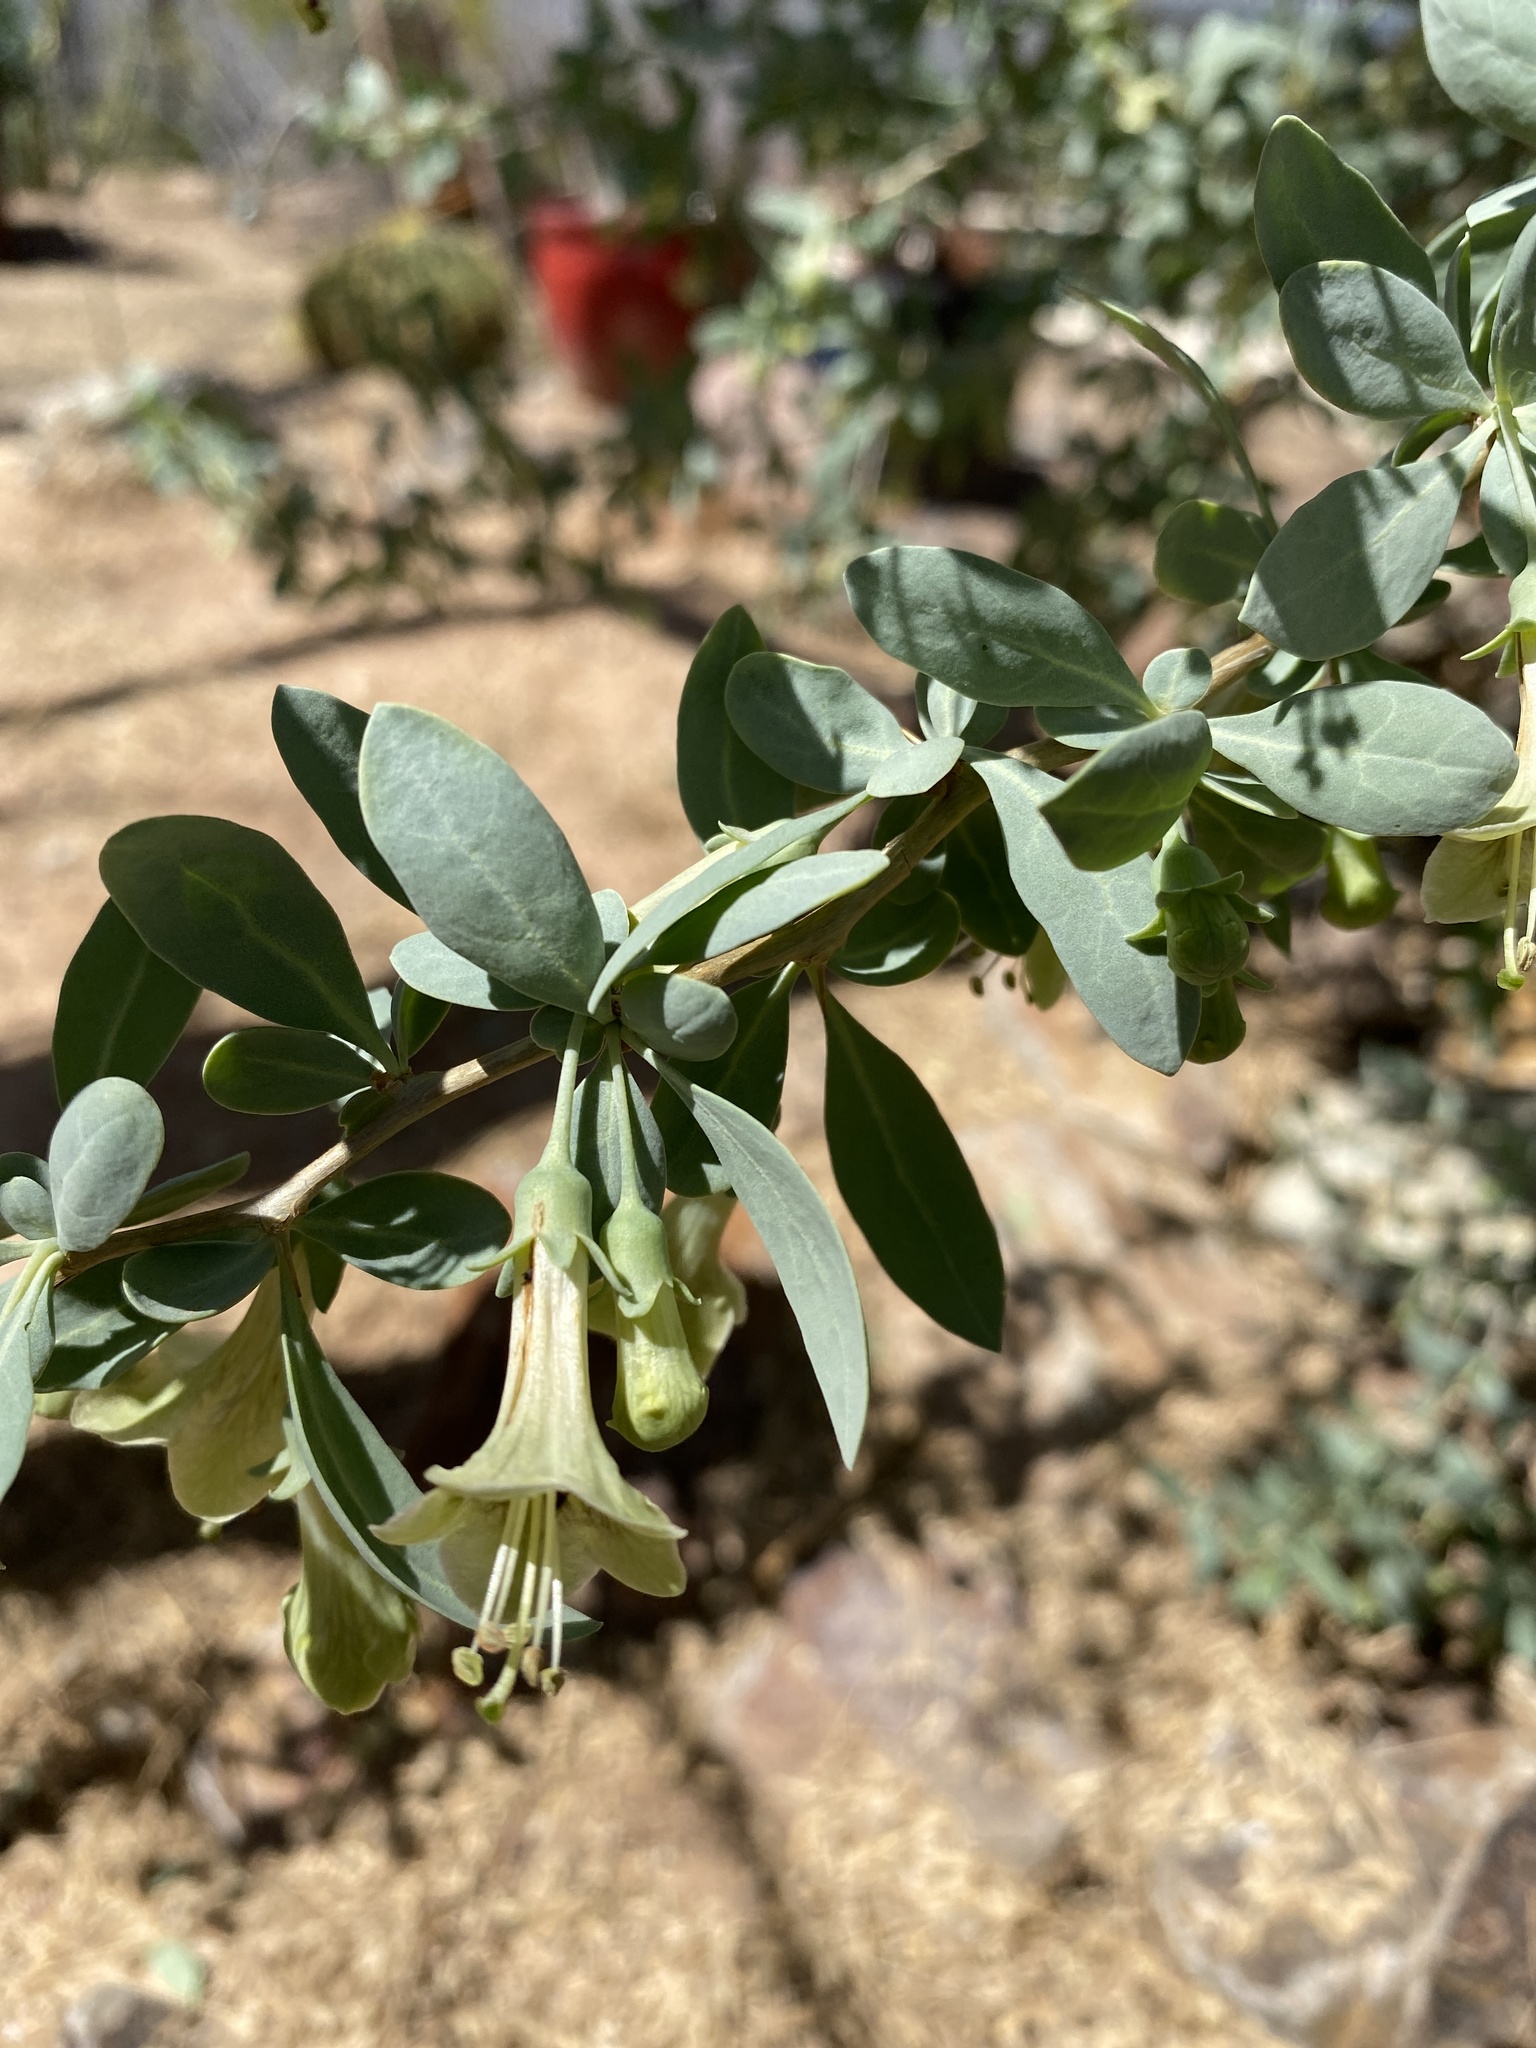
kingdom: Plantae
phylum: Tracheophyta
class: Magnoliopsida
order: Solanales
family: Solanaceae
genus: Lycium
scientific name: Lycium pallidum
